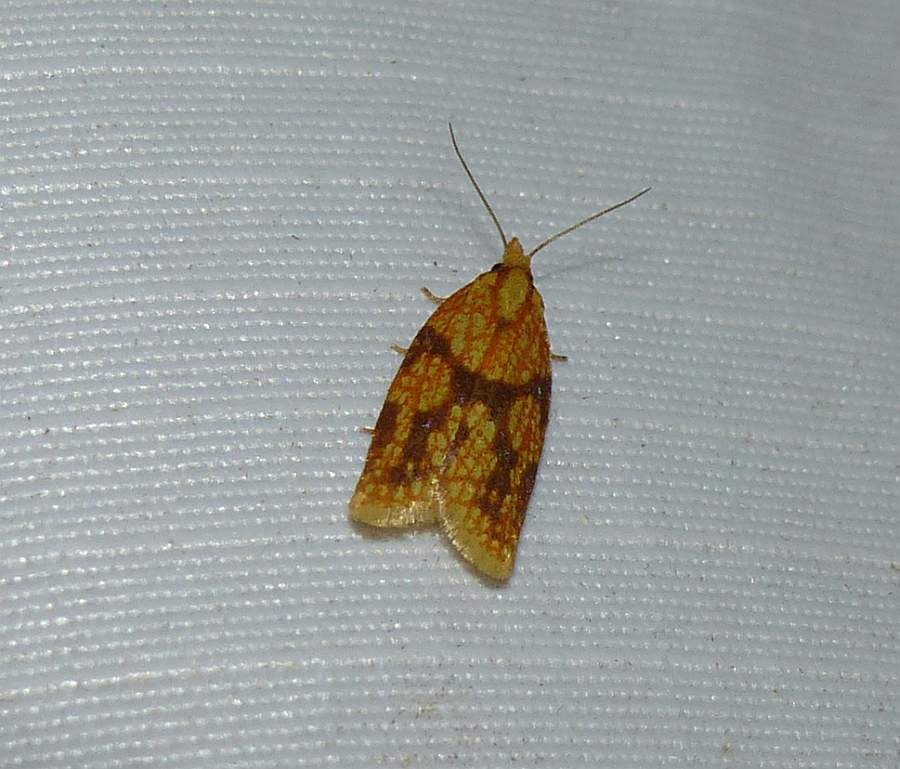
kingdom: Animalia
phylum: Arthropoda
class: Insecta
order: Lepidoptera
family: Tortricidae
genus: Sparganothis
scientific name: Sparganothis sulfureana
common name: Sparganothis fruitworm moth
